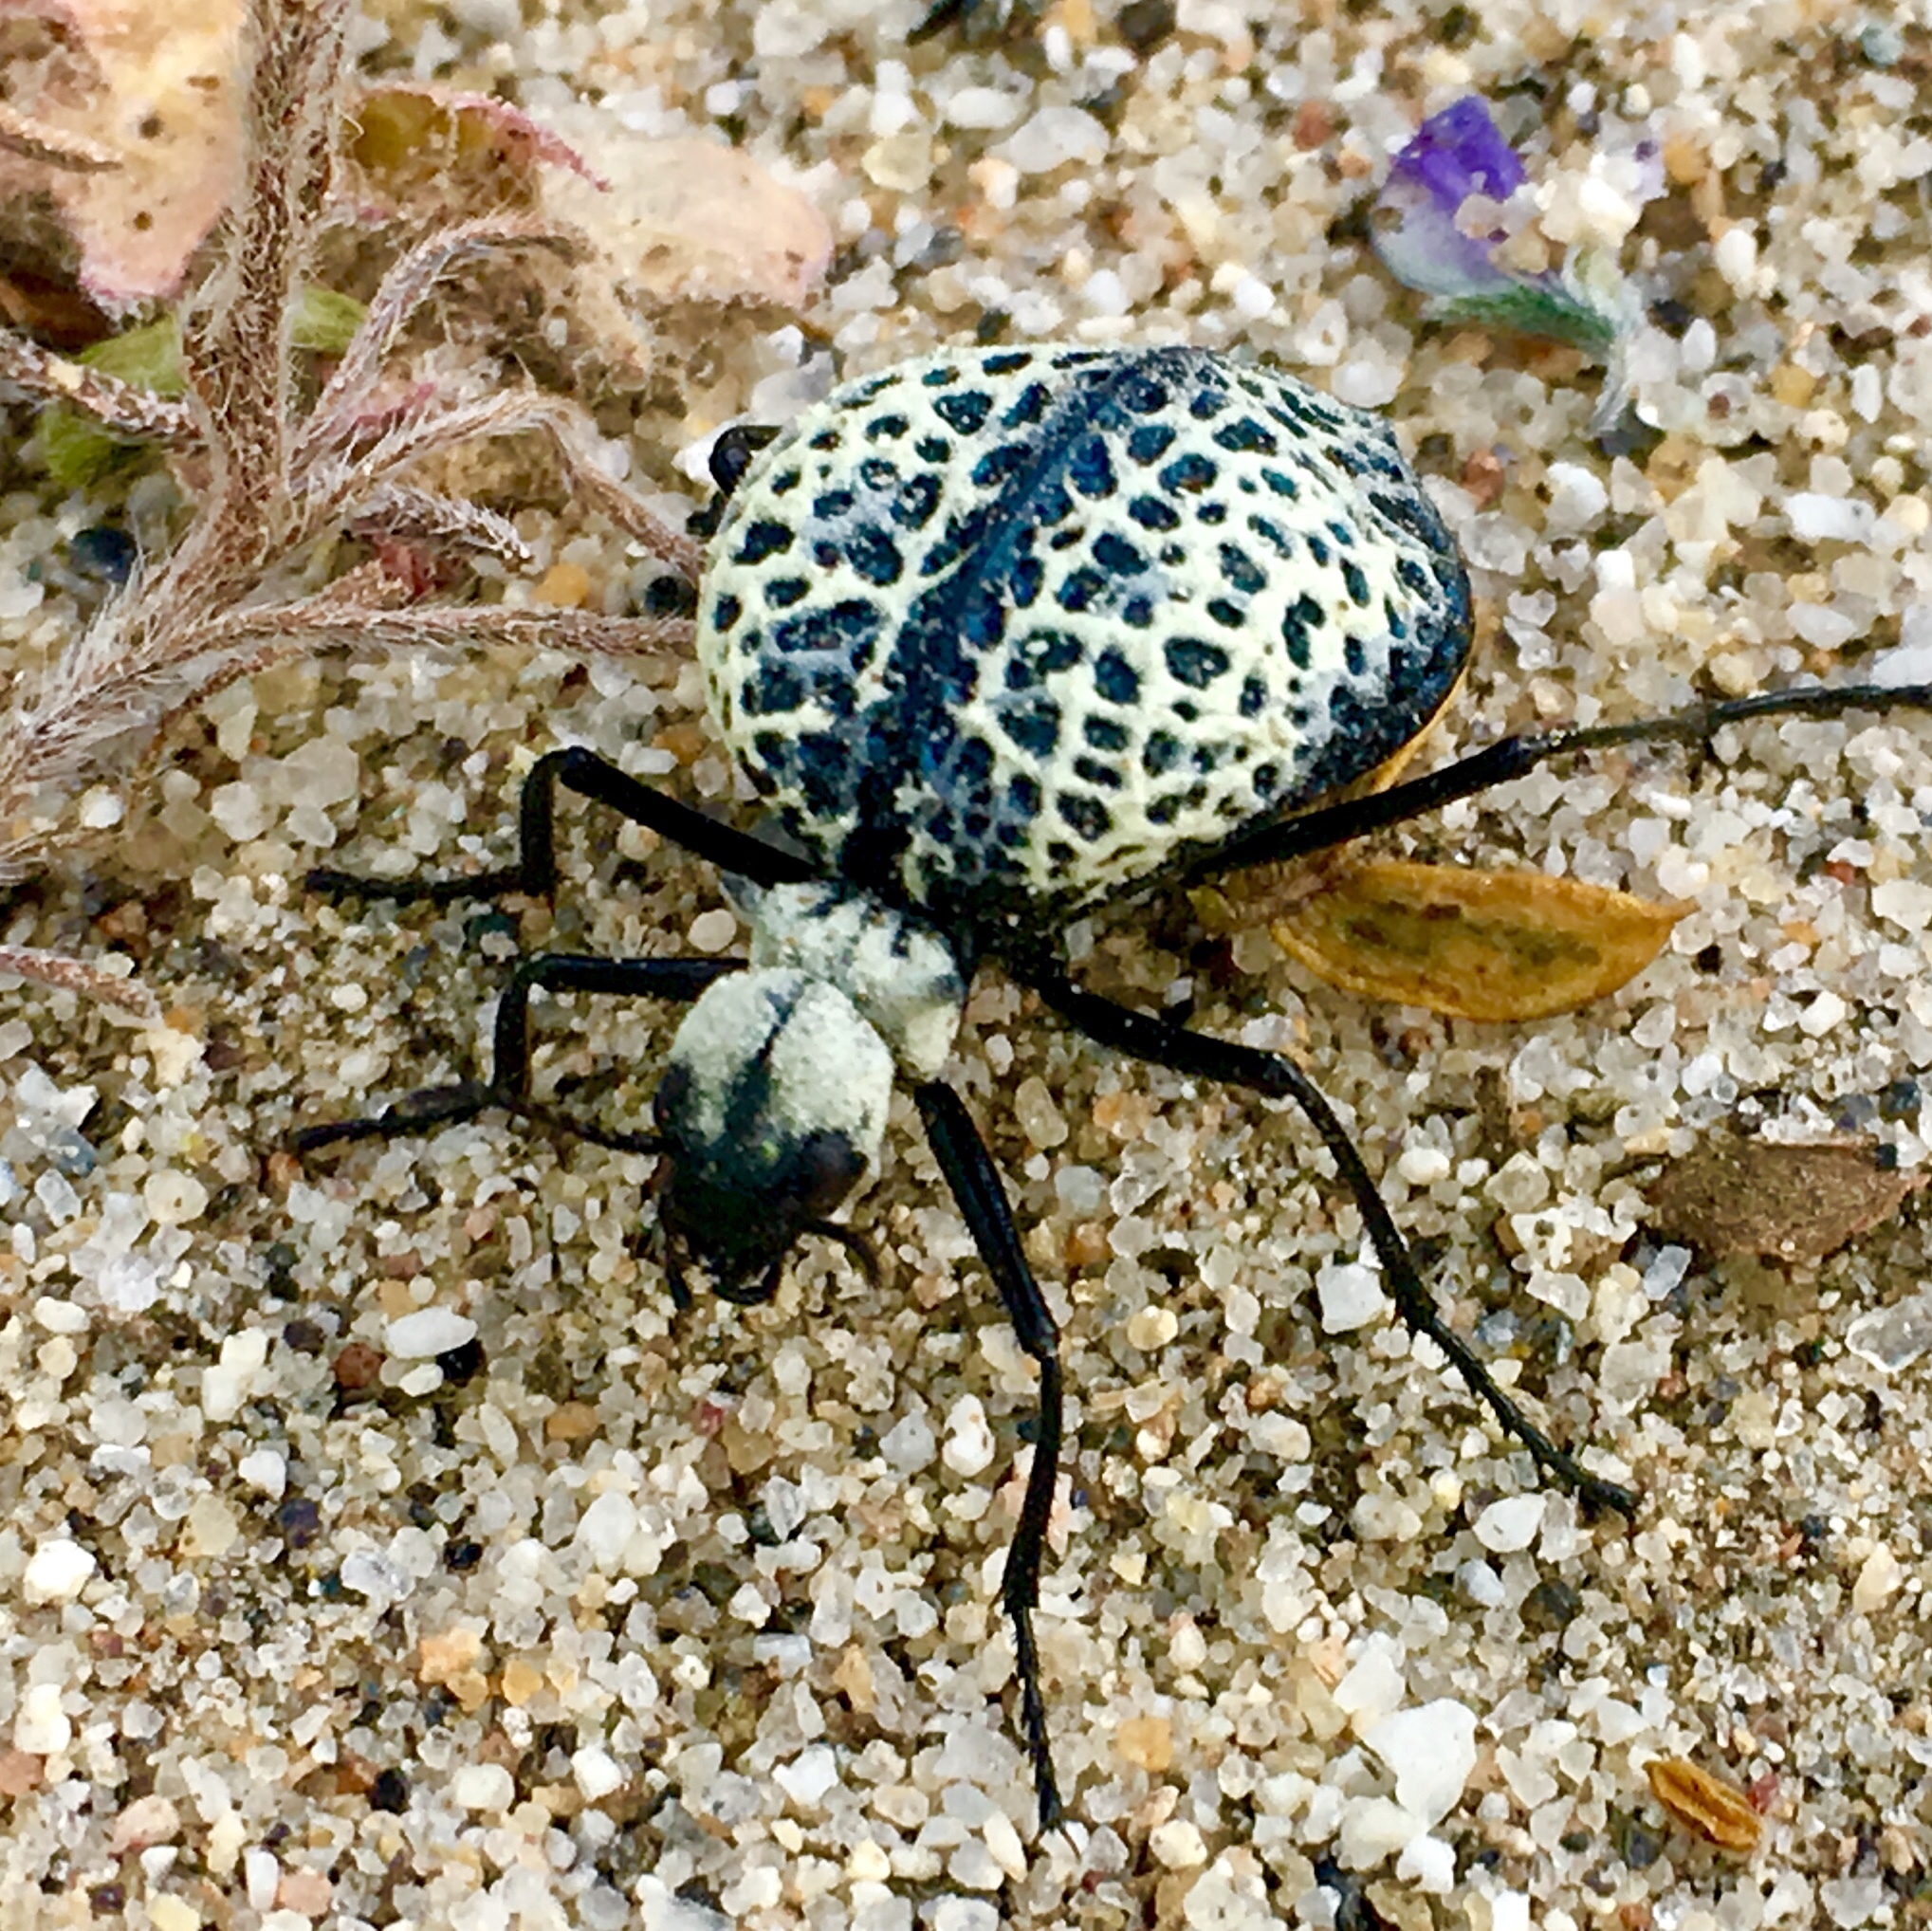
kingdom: Animalia
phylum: Arthropoda
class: Insecta
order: Coleoptera
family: Meloidae
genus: Cysteodemus
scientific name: Cysteodemus armatus
